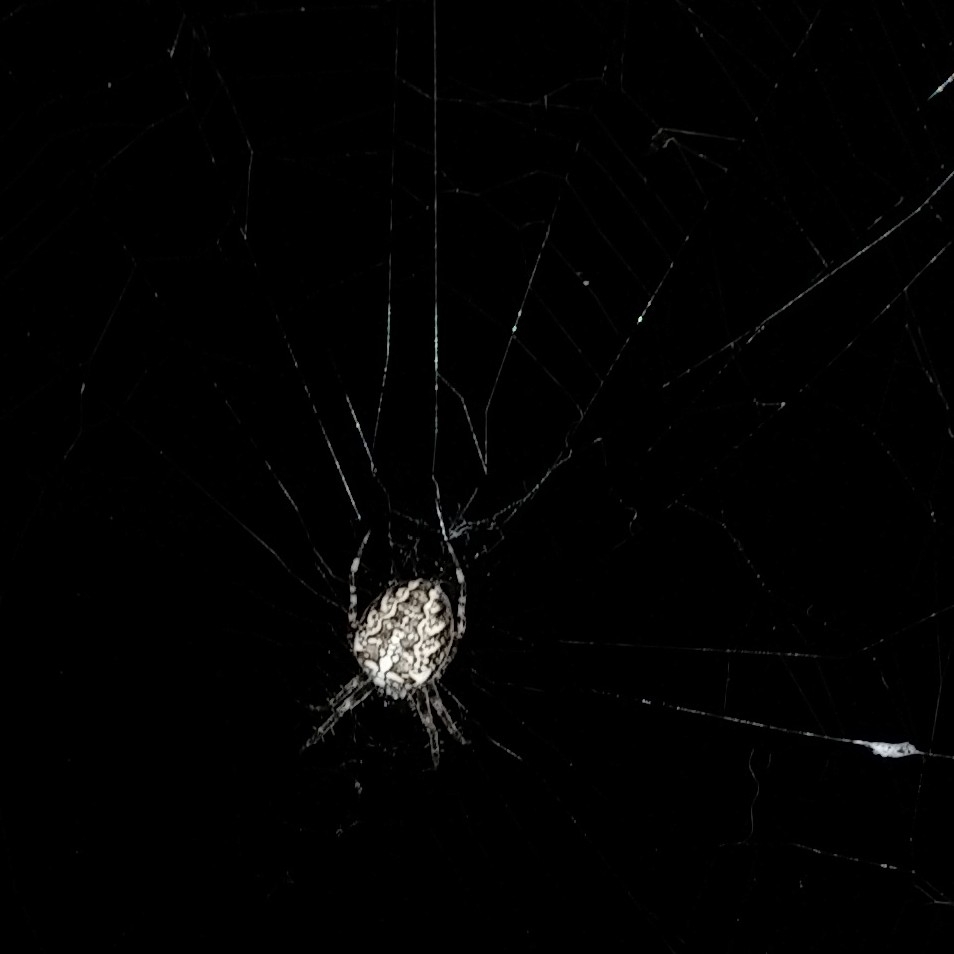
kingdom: Animalia
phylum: Arthropoda
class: Arachnida
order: Araneae
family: Araneidae
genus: Araneus
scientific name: Araneus diadematus
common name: Cross orbweaver
